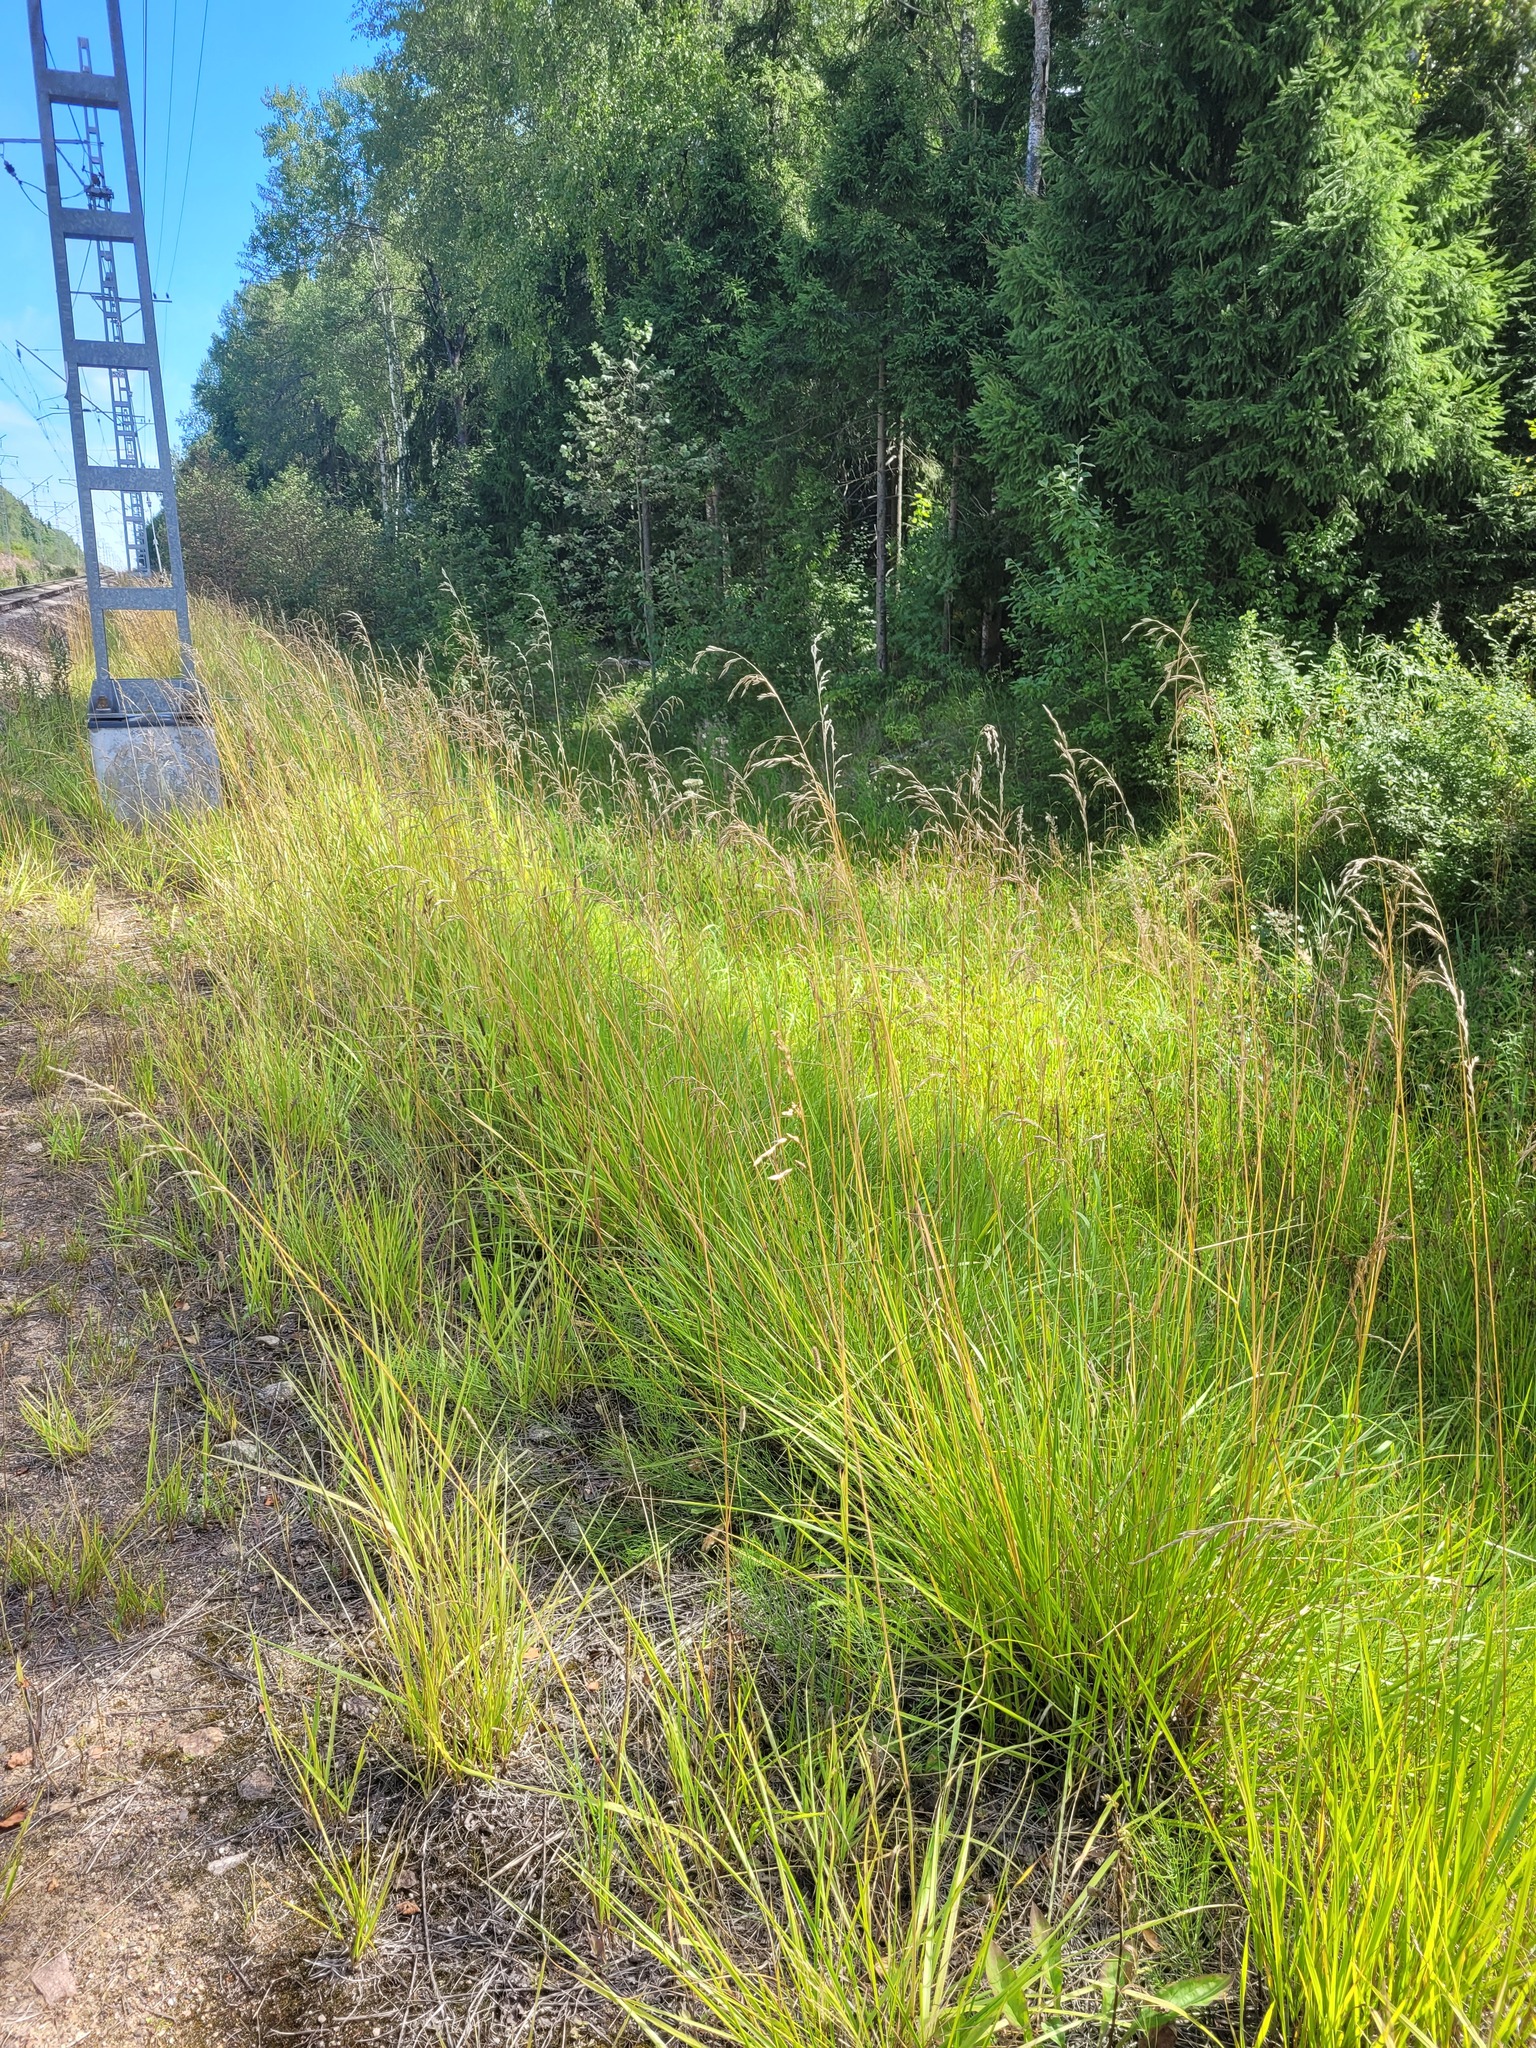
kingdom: Plantae
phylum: Tracheophyta
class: Liliopsida
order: Poales
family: Poaceae
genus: Lolium
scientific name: Lolium arundinaceum
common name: Reed fescue
